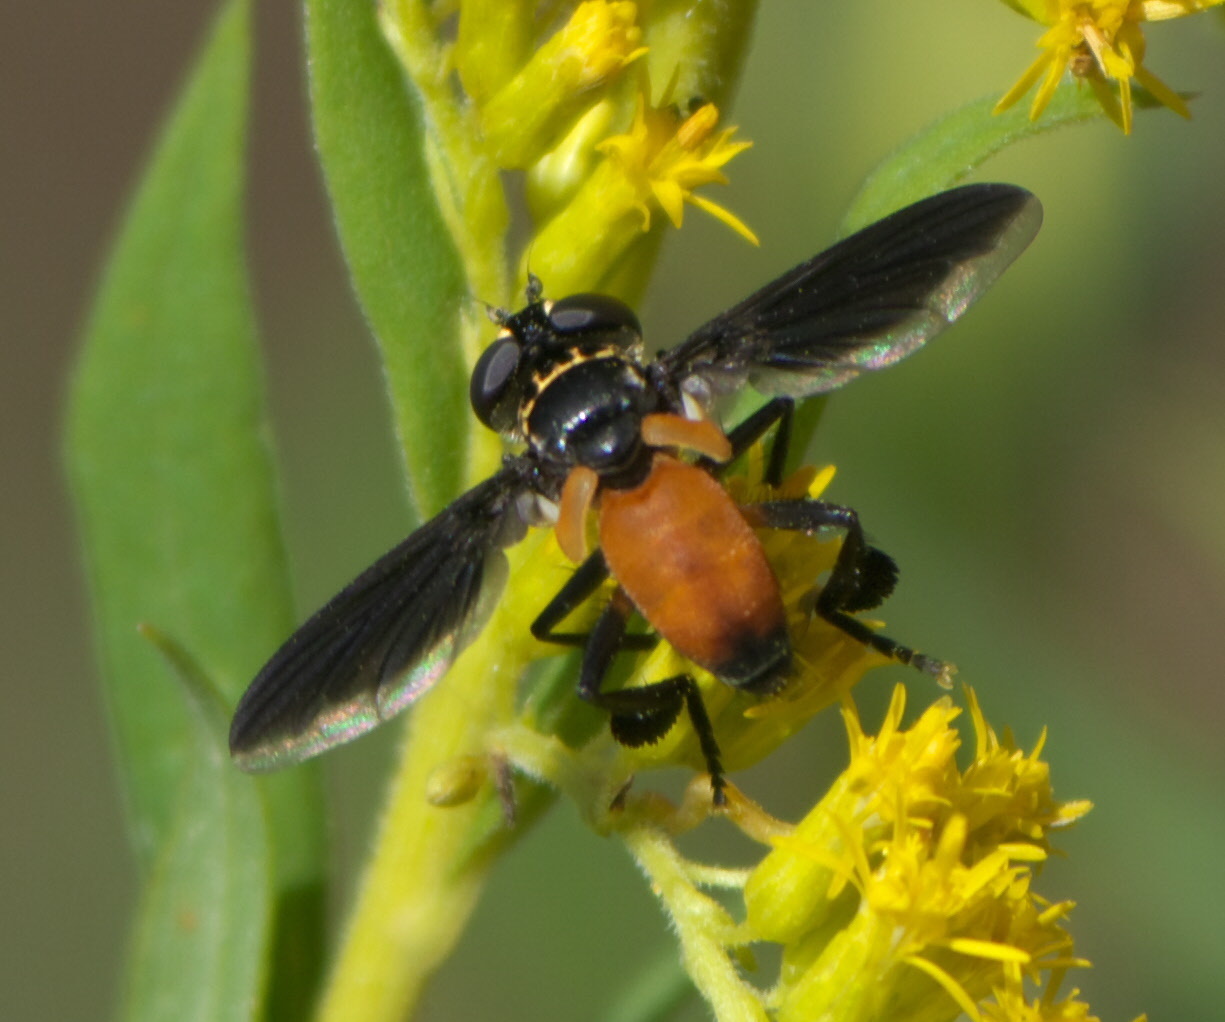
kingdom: Animalia
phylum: Arthropoda
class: Insecta
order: Diptera
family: Tachinidae
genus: Trichopoda
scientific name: Trichopoda pennipes
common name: Tachinid fly
